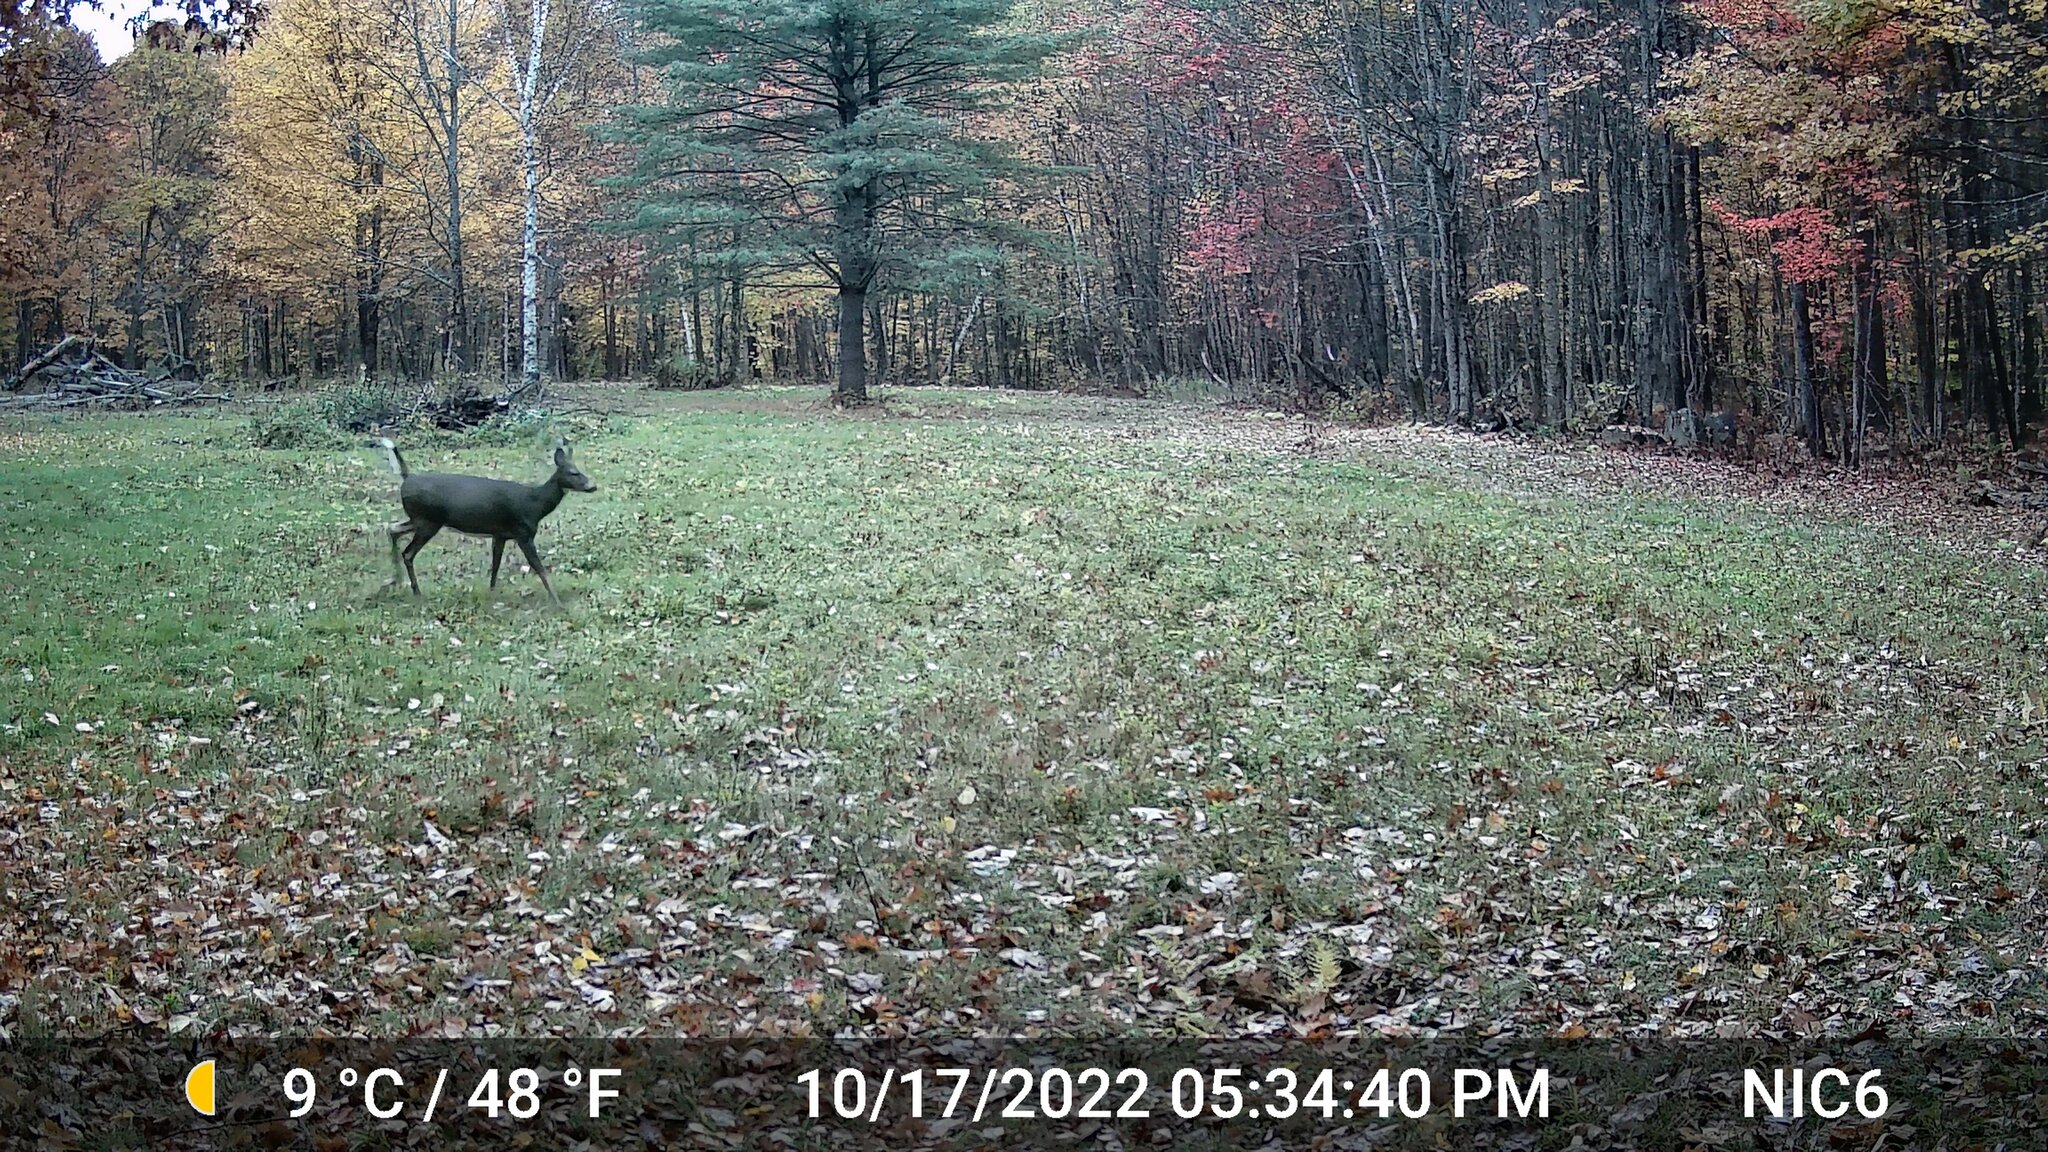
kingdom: Animalia
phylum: Chordata
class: Mammalia
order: Artiodactyla
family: Cervidae
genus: Odocoileus
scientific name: Odocoileus virginianus
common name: White-tailed deer
